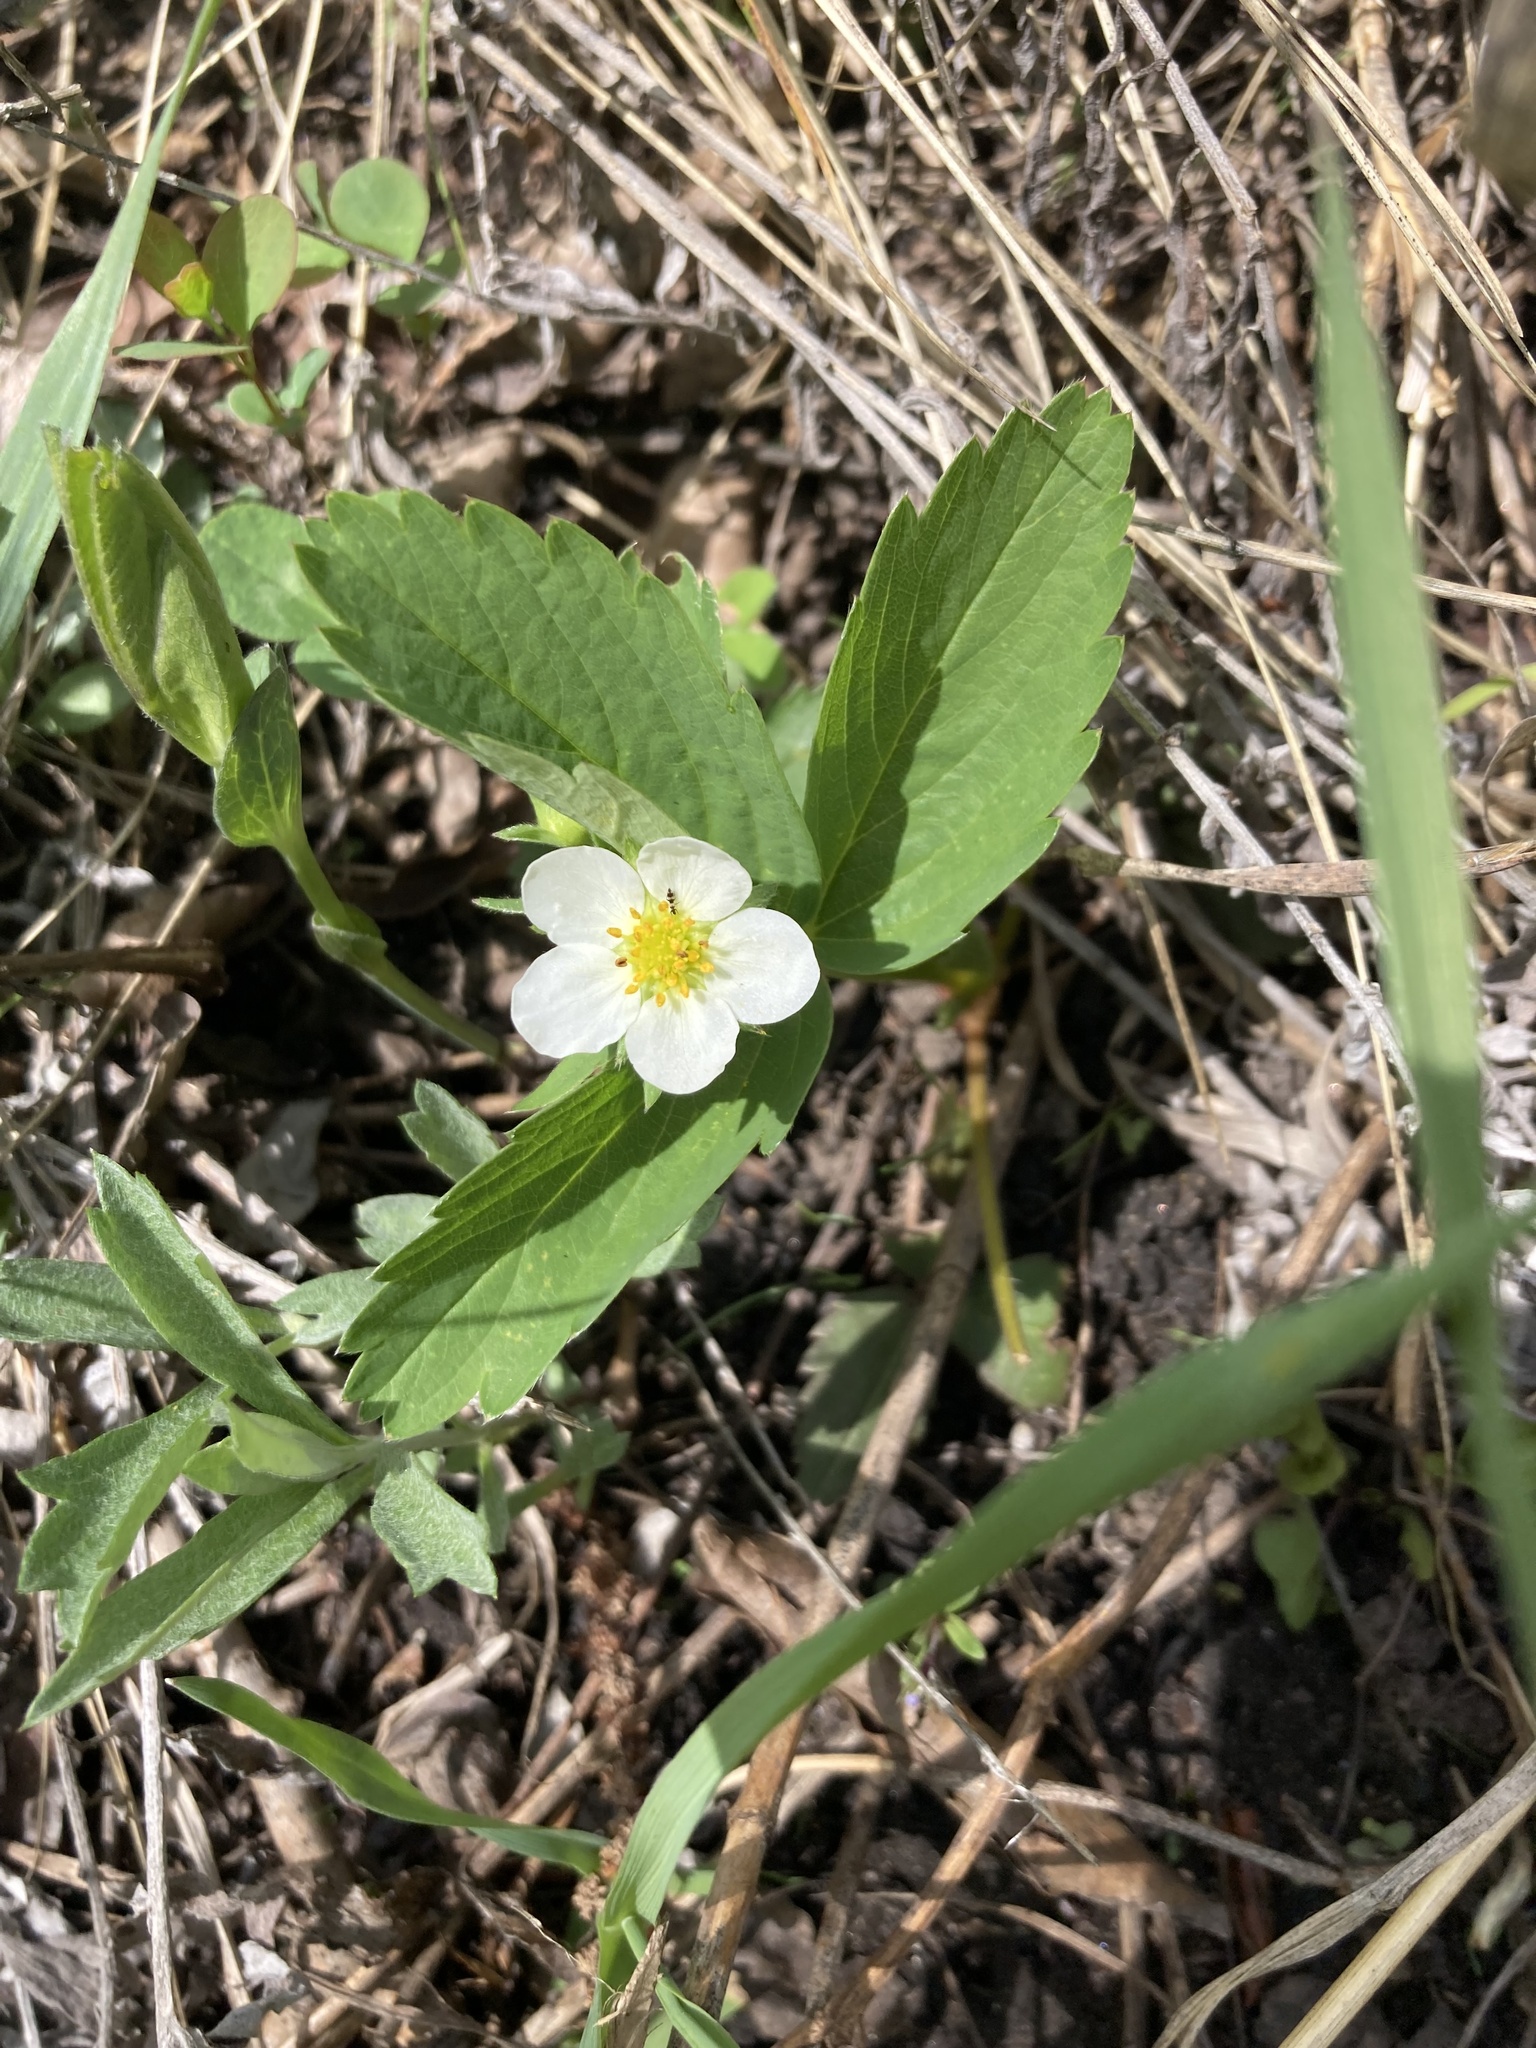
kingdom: Plantae
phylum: Tracheophyta
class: Magnoliopsida
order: Rosales
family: Rosaceae
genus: Fragaria
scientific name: Fragaria virginiana
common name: Thickleaved wild strawberry
